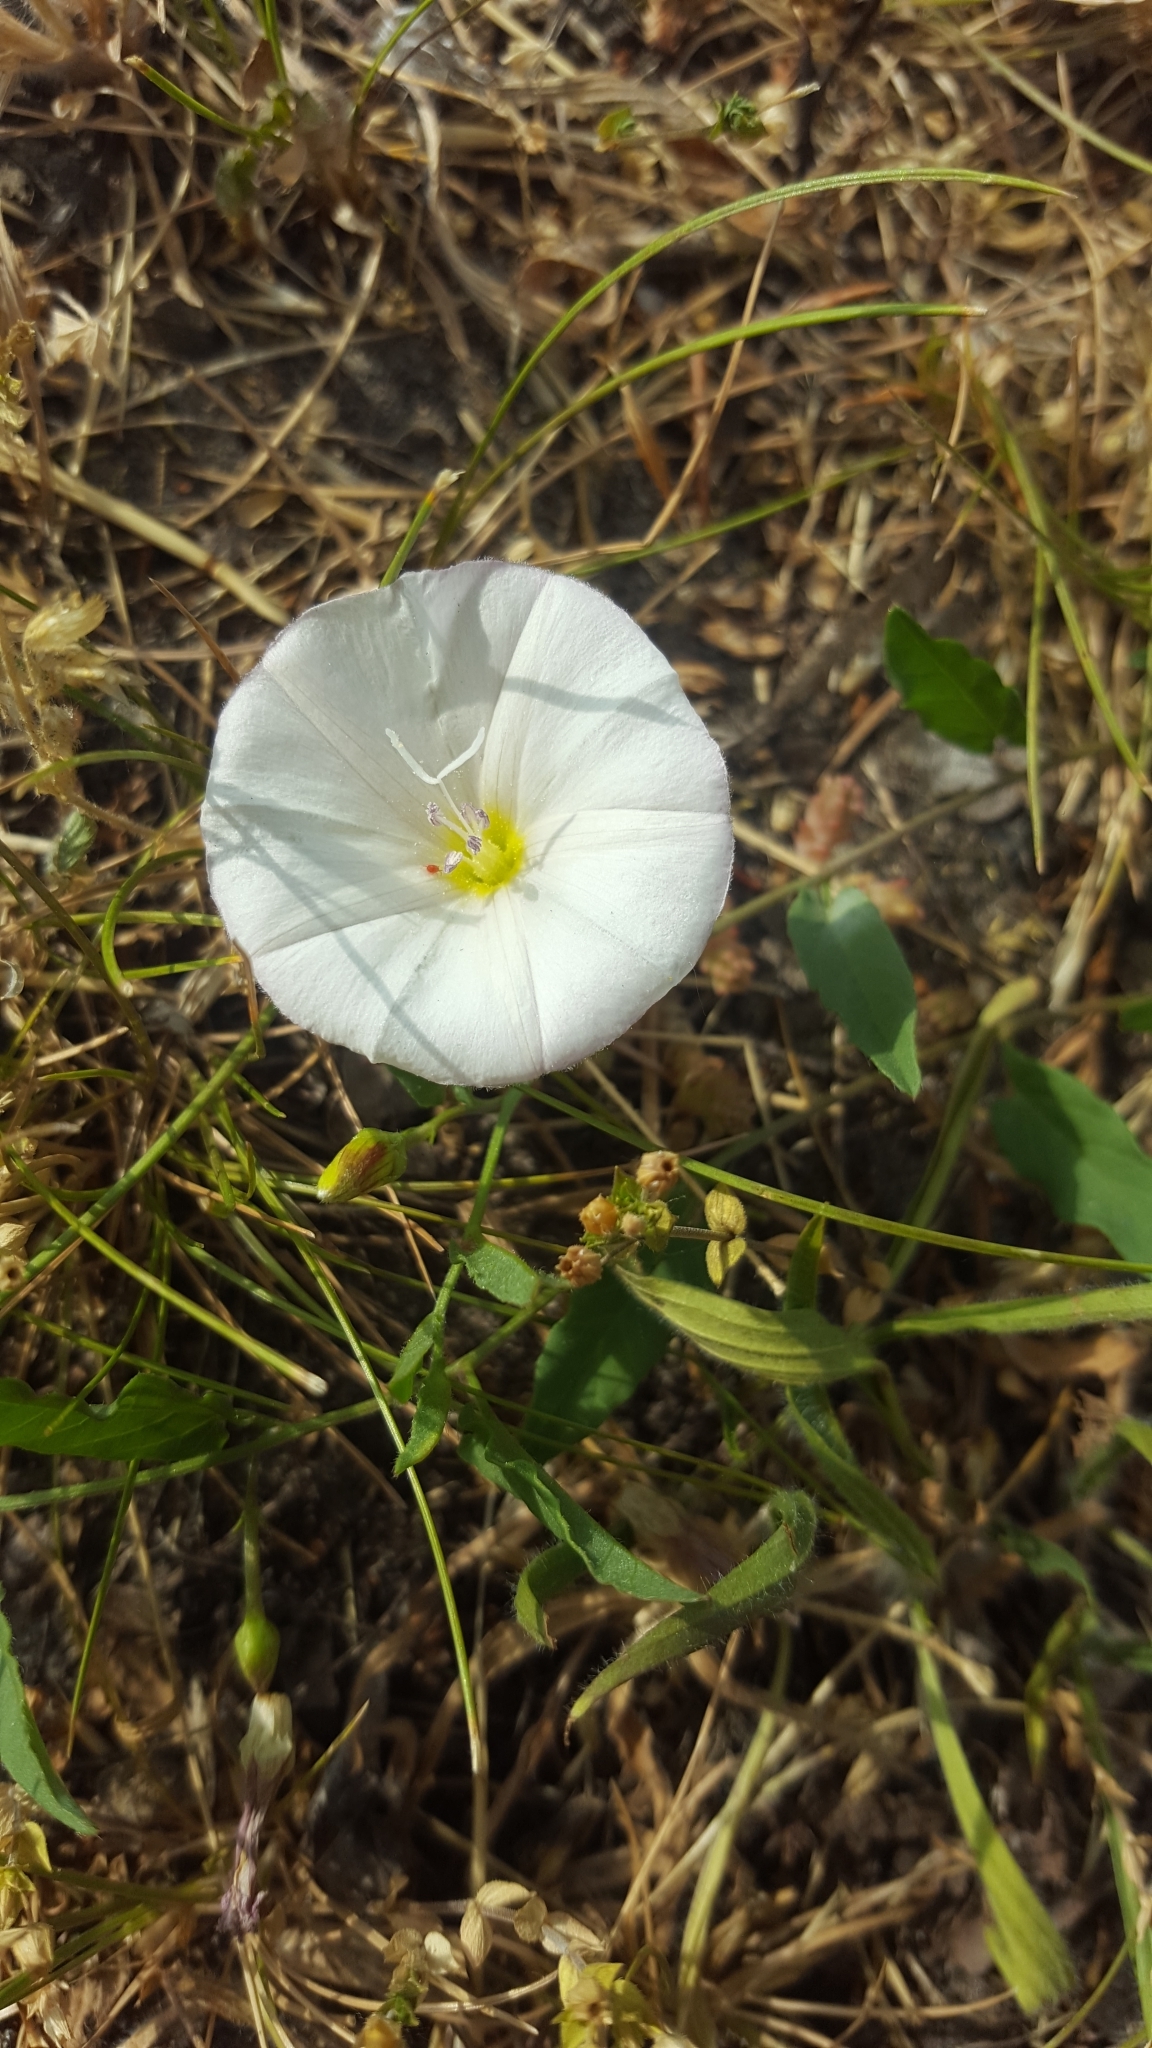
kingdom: Plantae
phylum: Tracheophyta
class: Magnoliopsida
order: Solanales
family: Convolvulaceae
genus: Convolvulus
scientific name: Convolvulus arvensis
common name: Field bindweed
